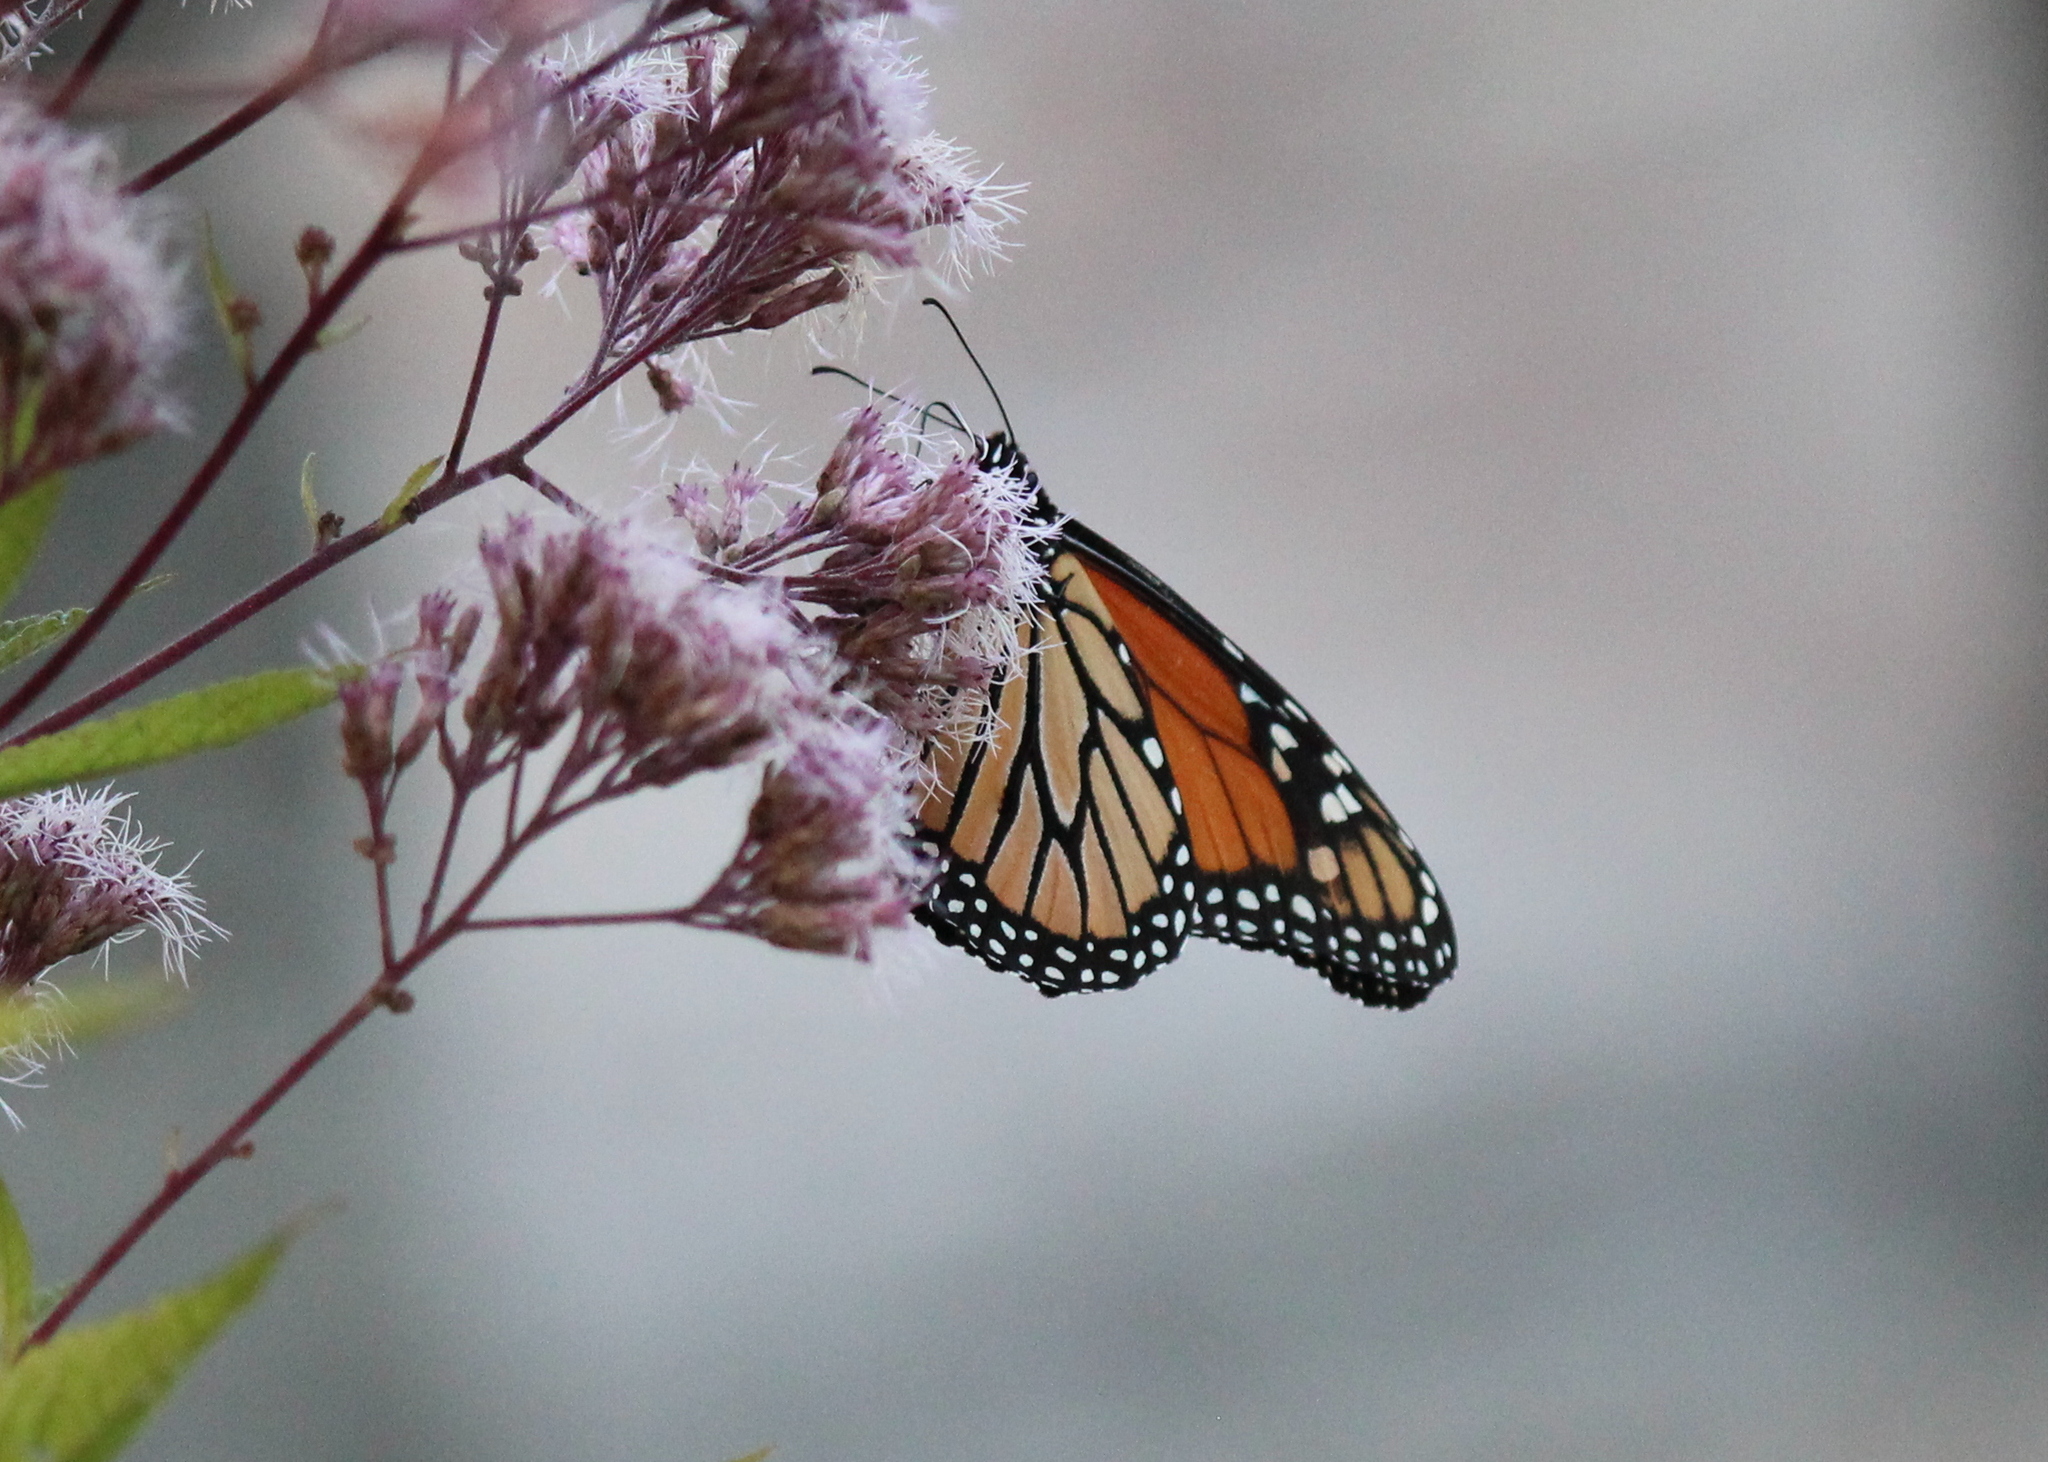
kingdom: Animalia
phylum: Arthropoda
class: Insecta
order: Lepidoptera
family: Nymphalidae
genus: Danaus
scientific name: Danaus plexippus
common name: Monarch
